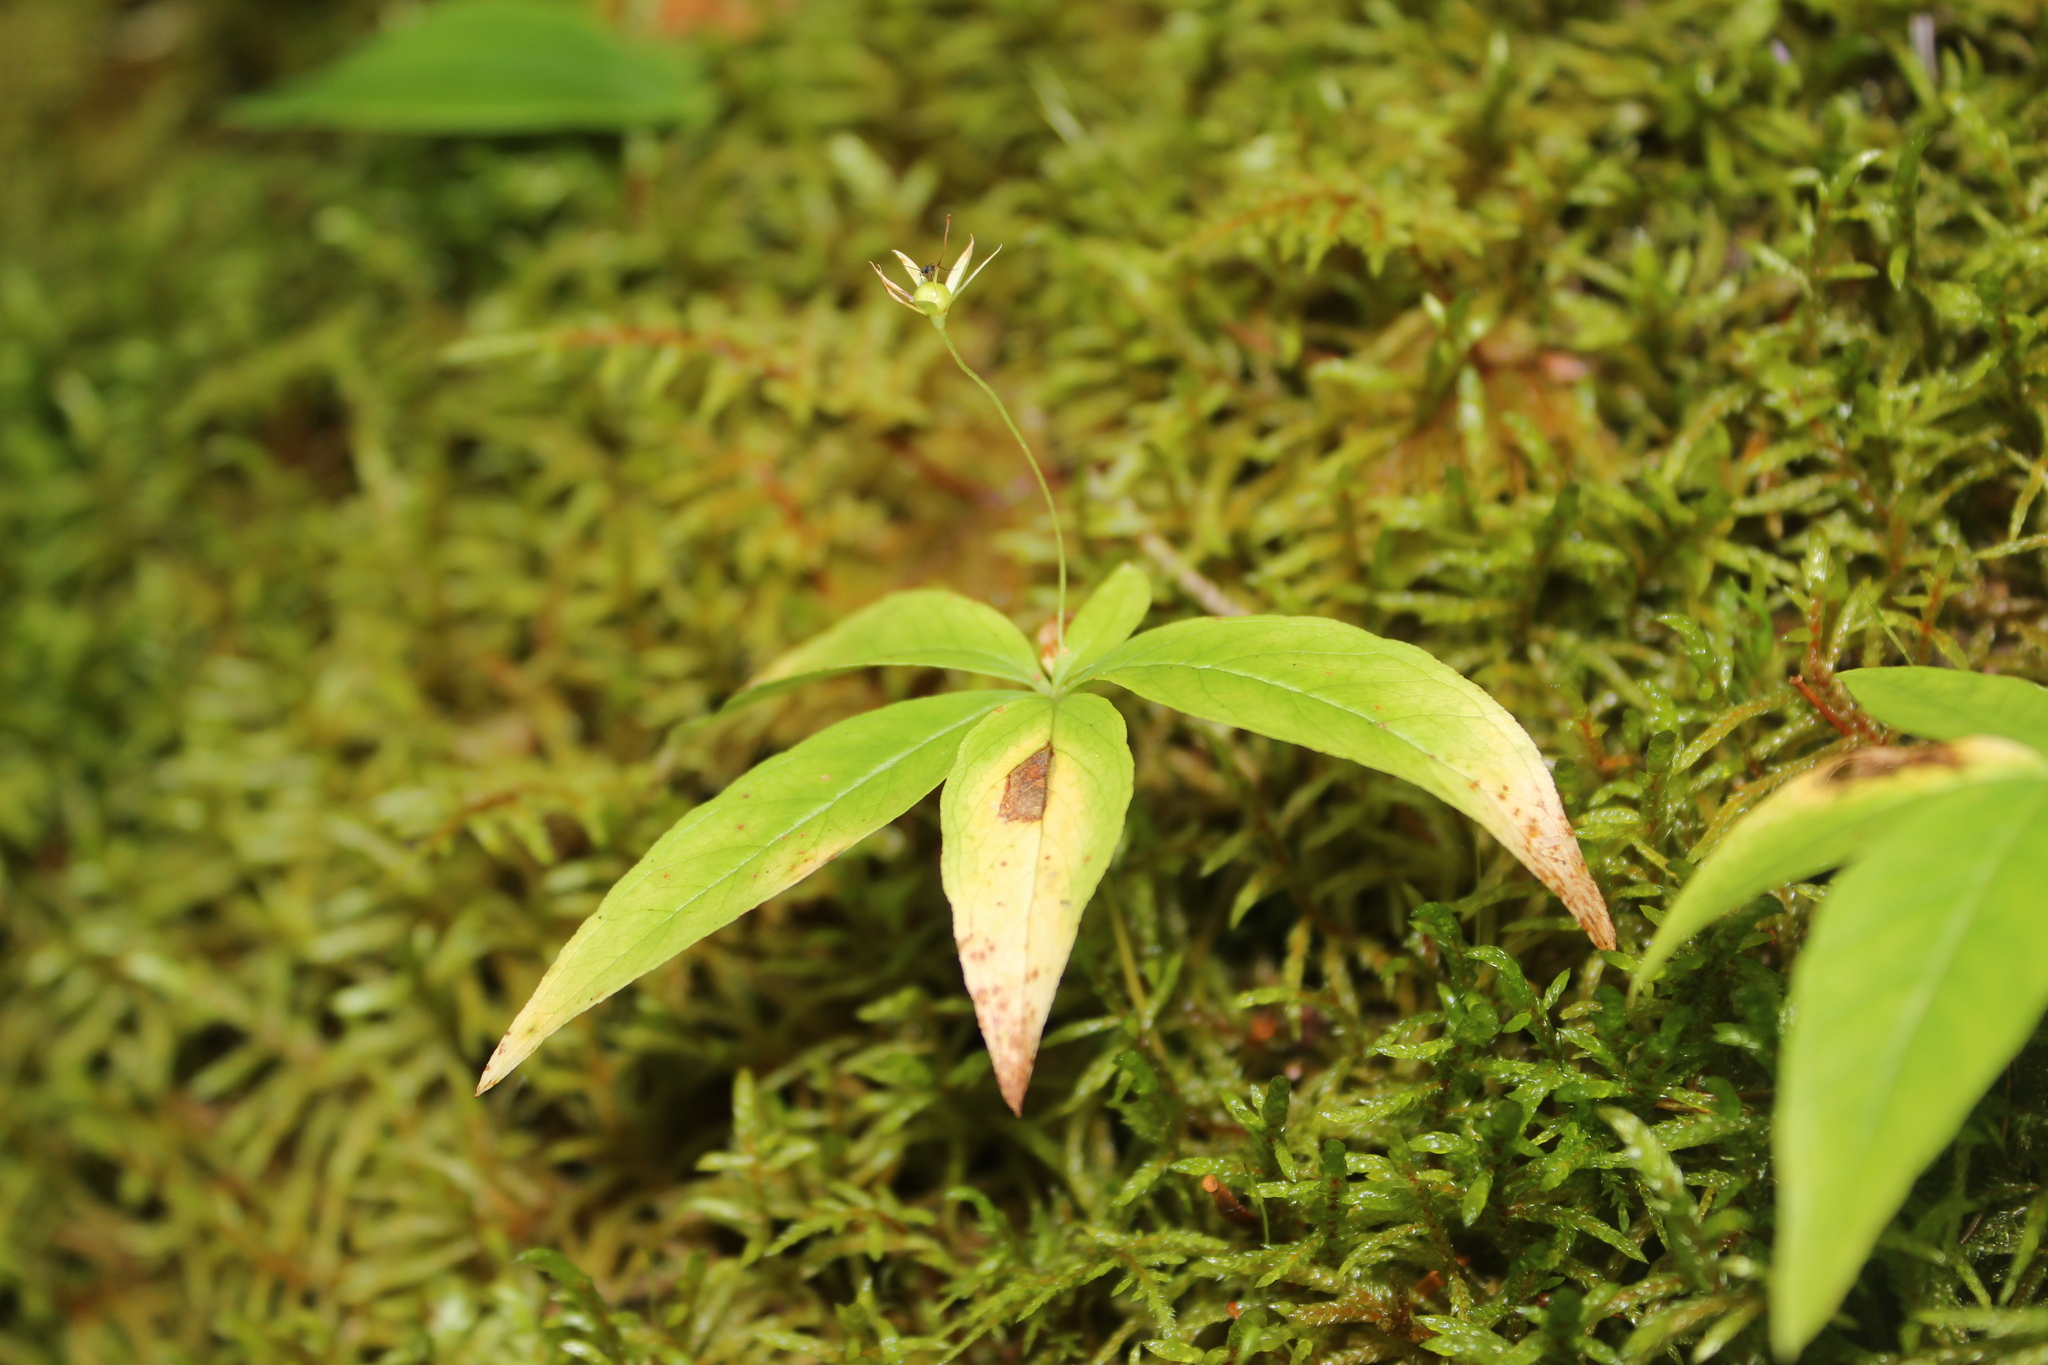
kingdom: Plantae
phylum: Tracheophyta
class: Magnoliopsida
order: Ericales
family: Primulaceae
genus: Lysimachia
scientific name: Lysimachia borealis
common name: American starflower
